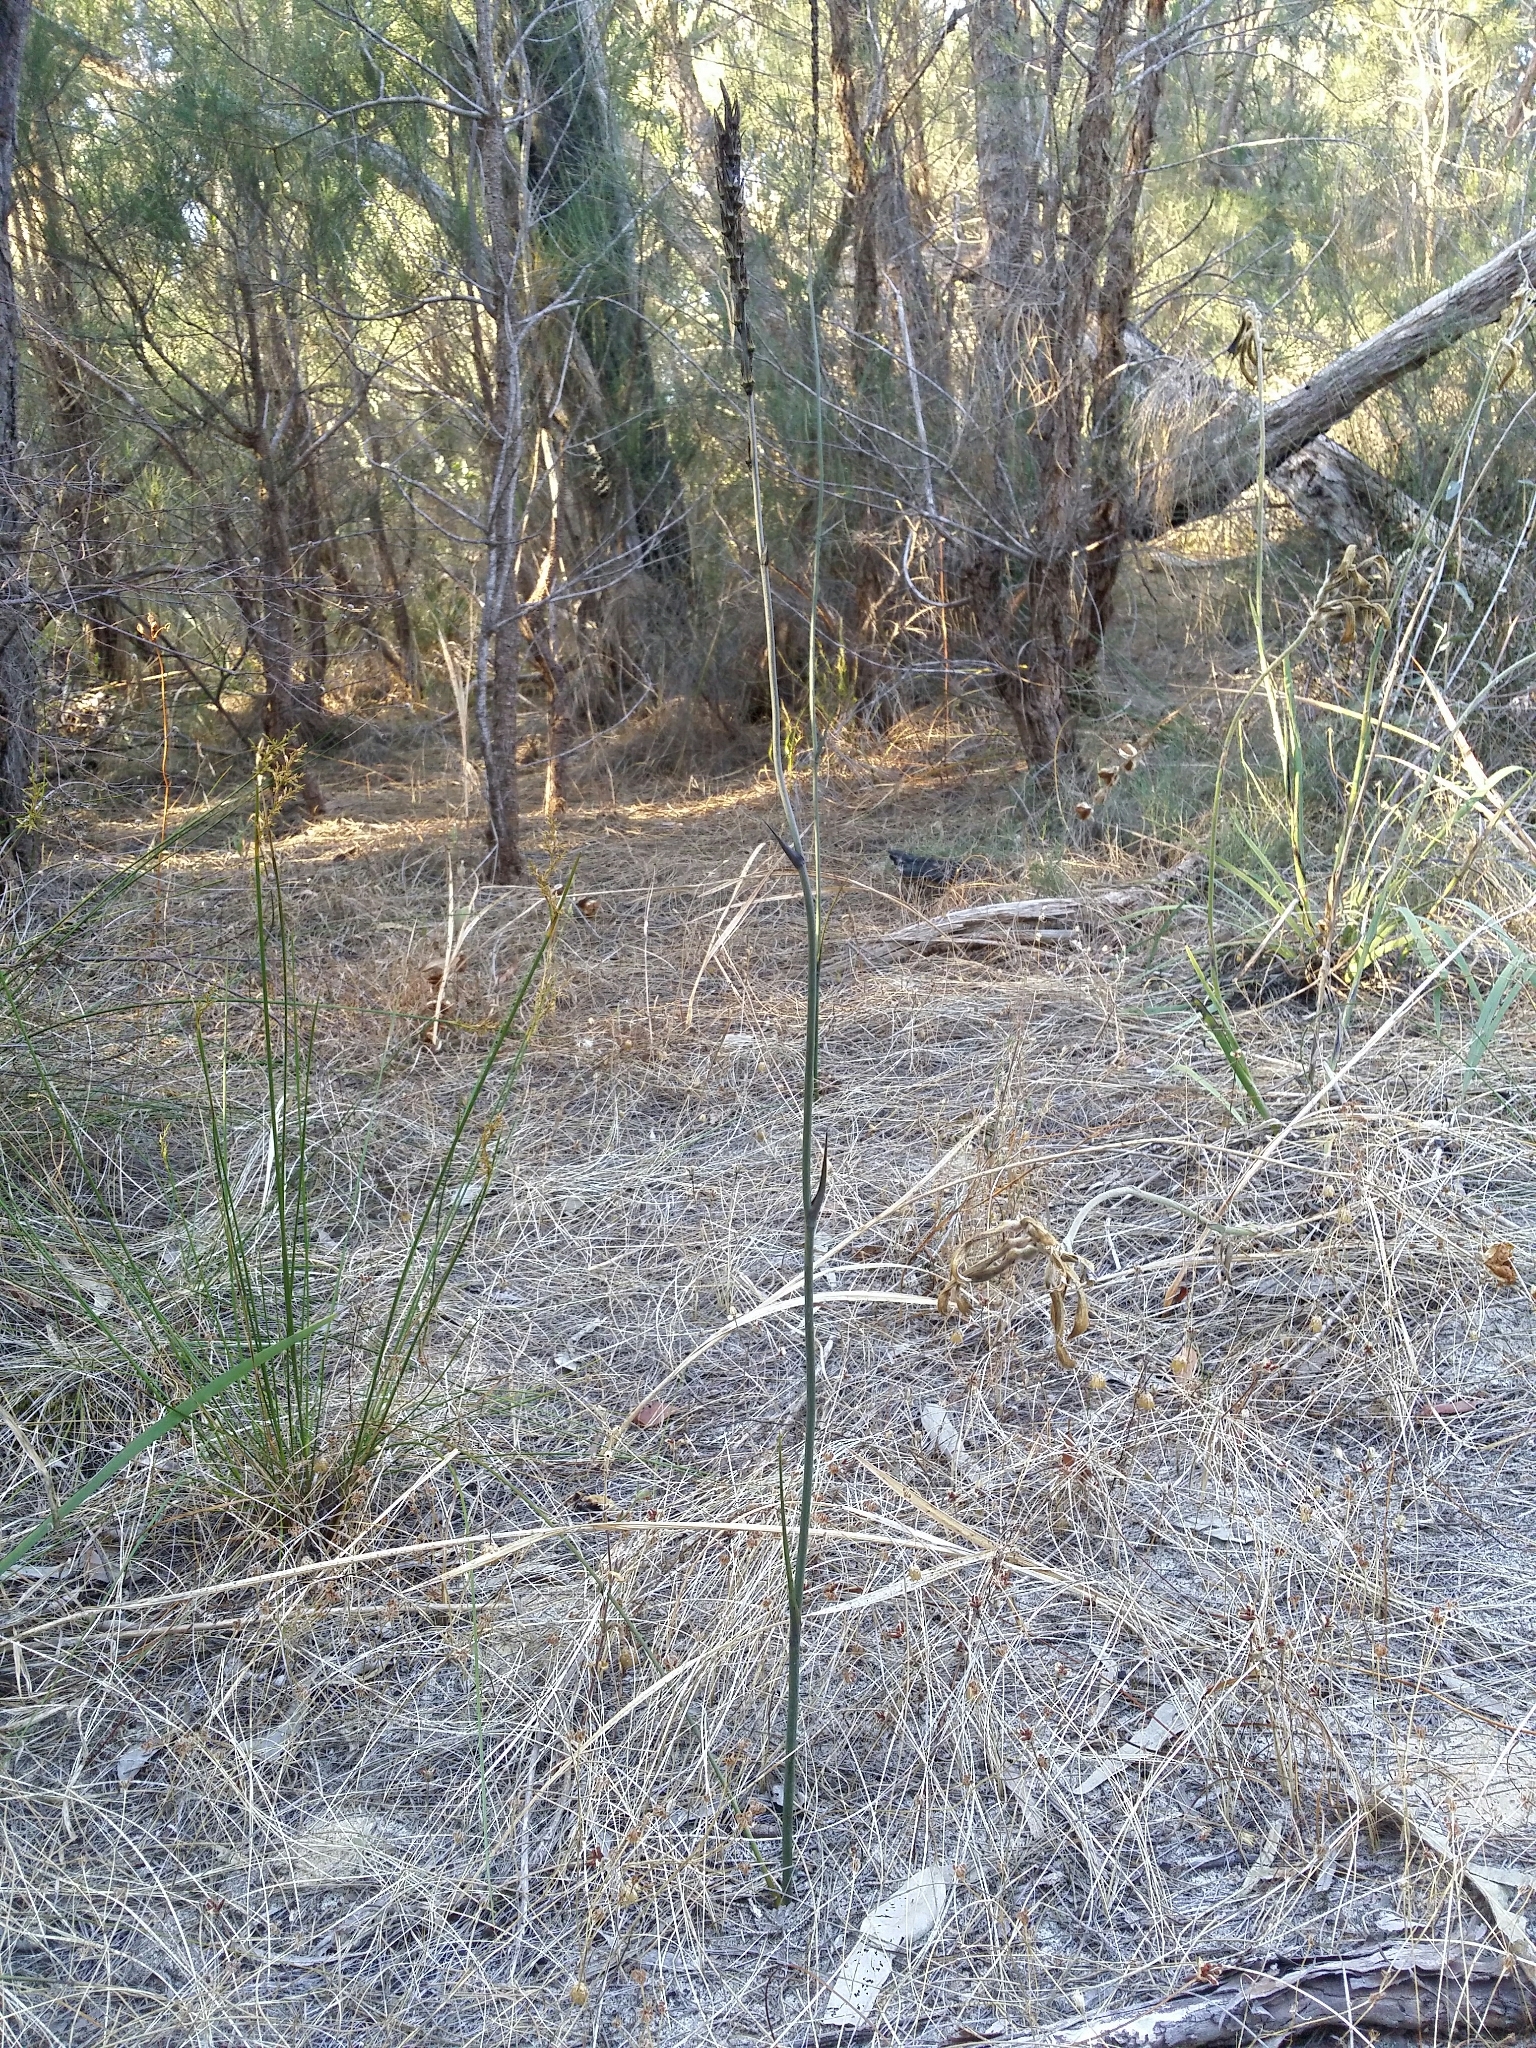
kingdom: Plantae
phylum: Tracheophyta
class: Liliopsida
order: Commelinales
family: Haemodoraceae
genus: Haemodorum
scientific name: Haemodorum spicatum
